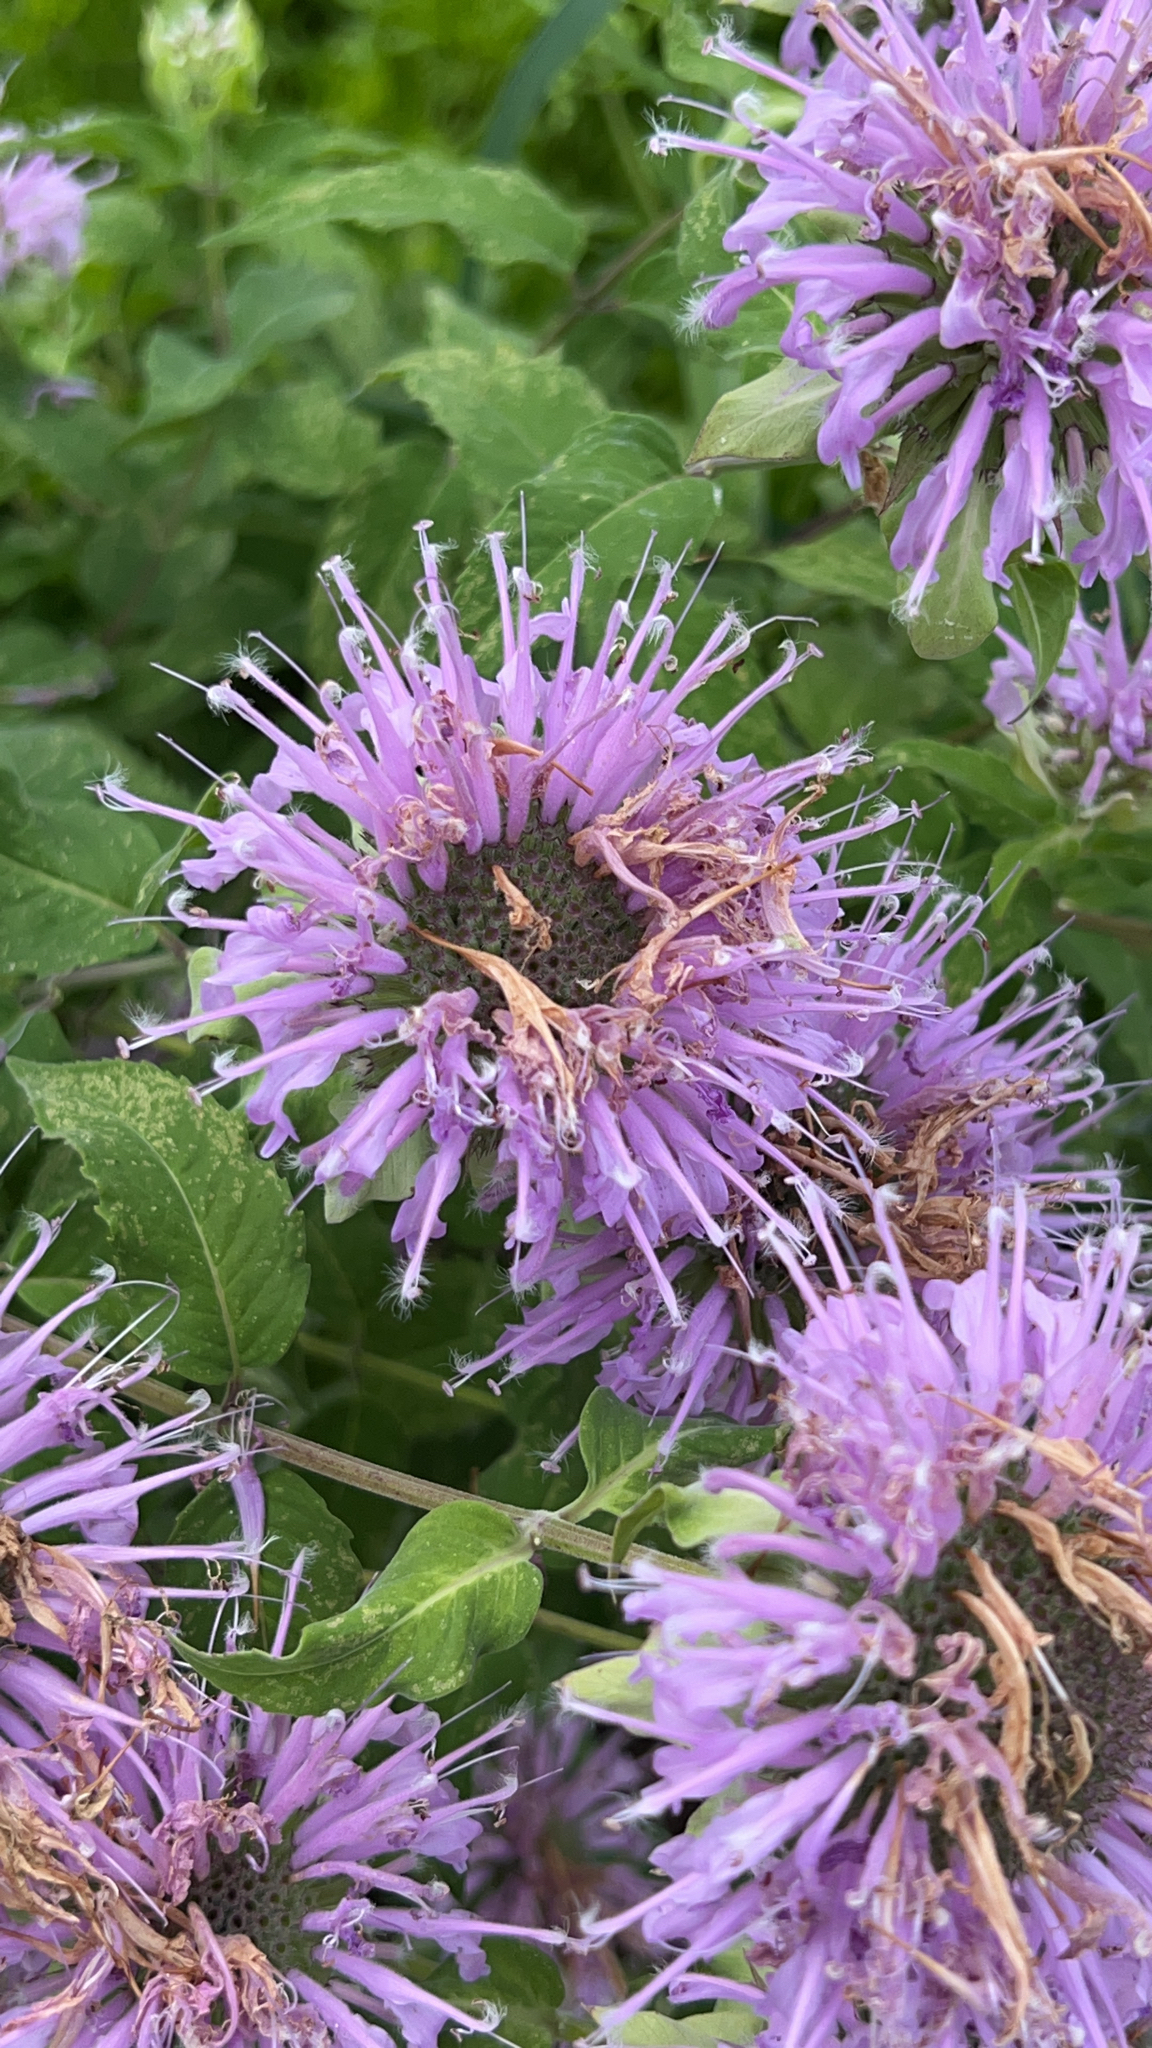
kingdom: Plantae
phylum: Tracheophyta
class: Magnoliopsida
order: Lamiales
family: Lamiaceae
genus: Monarda
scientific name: Monarda fistulosa
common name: Purple beebalm
